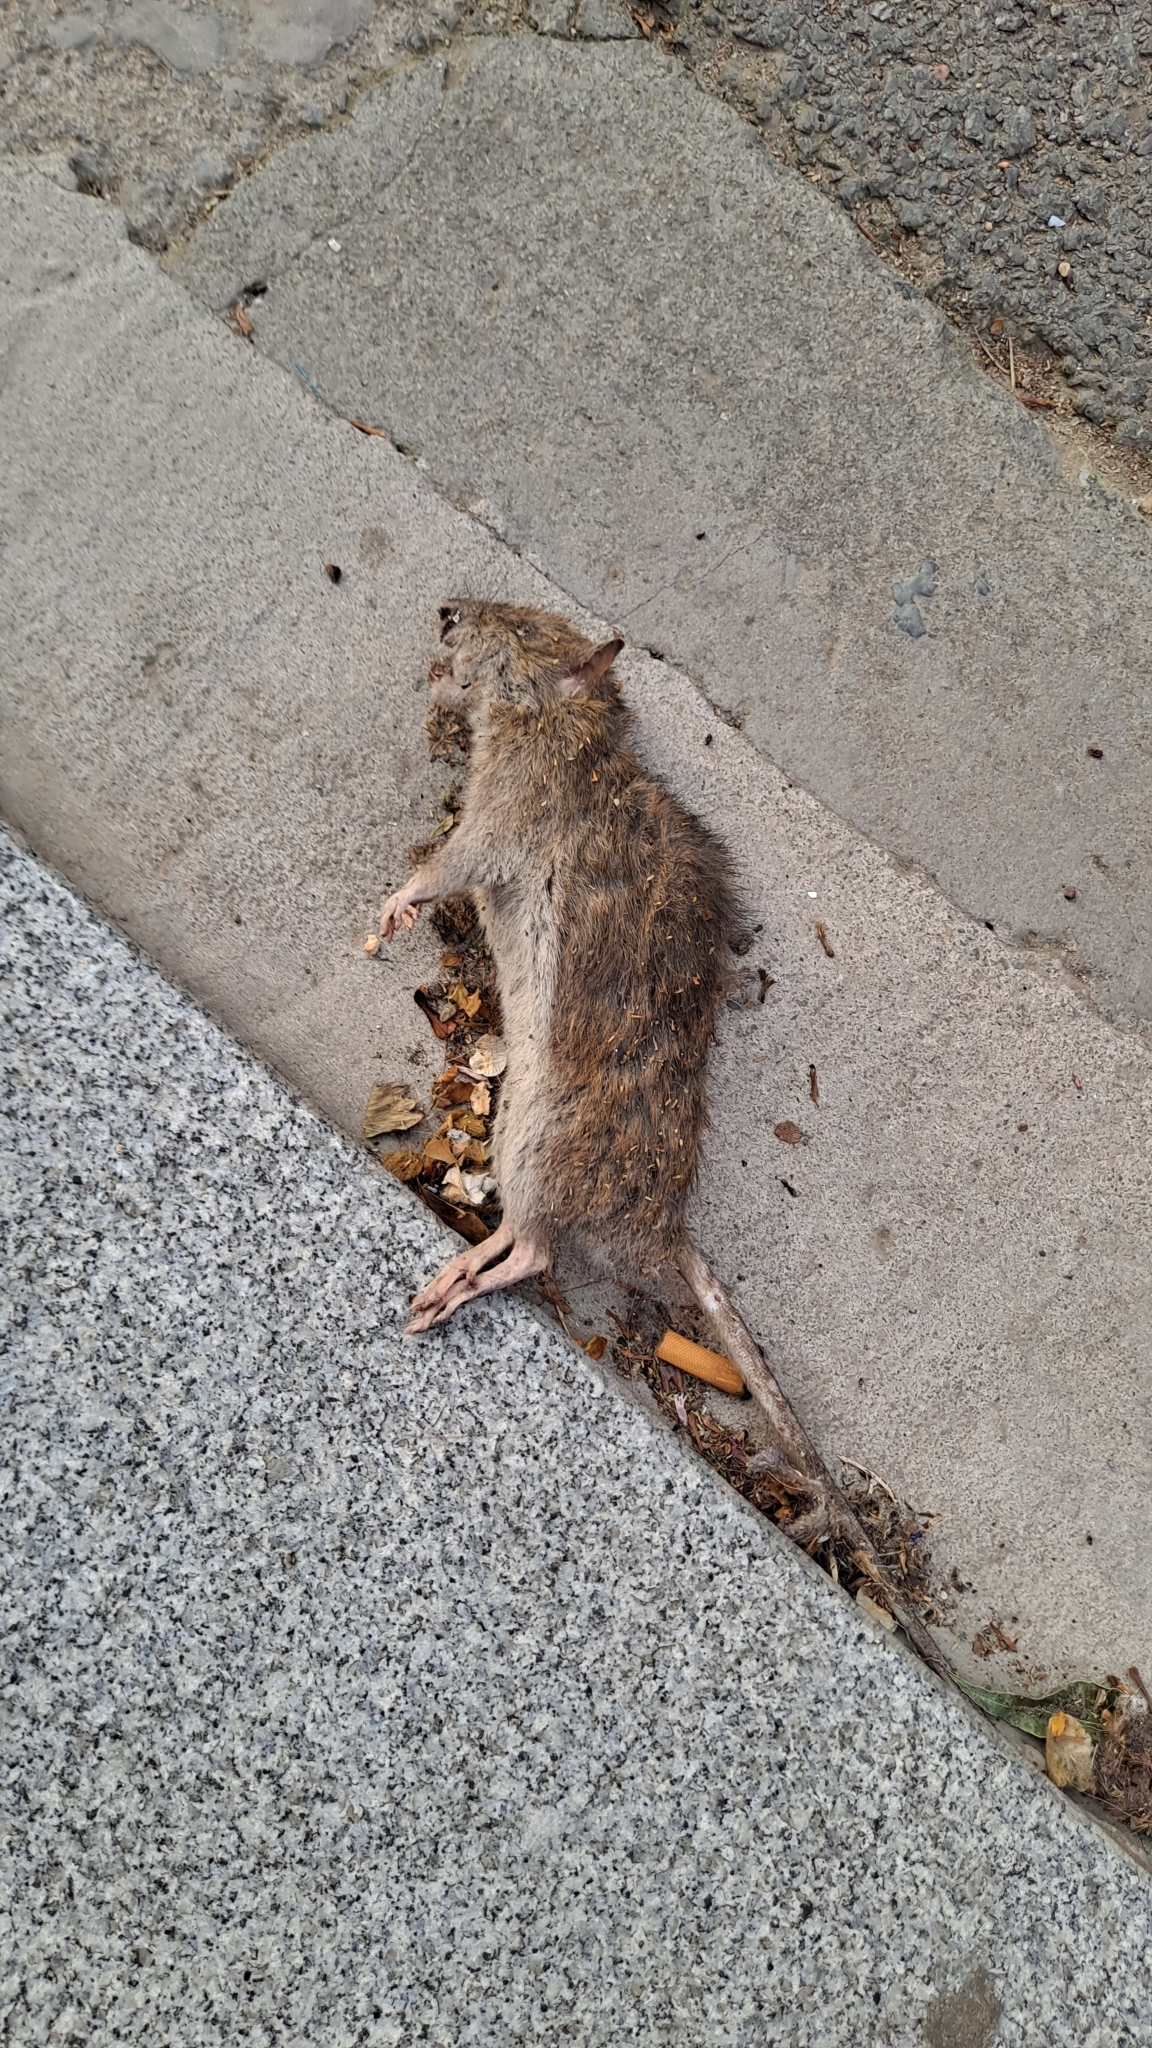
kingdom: Animalia
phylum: Chordata
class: Mammalia
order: Rodentia
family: Muridae
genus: Rattus
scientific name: Rattus norvegicus
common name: Brown rat
